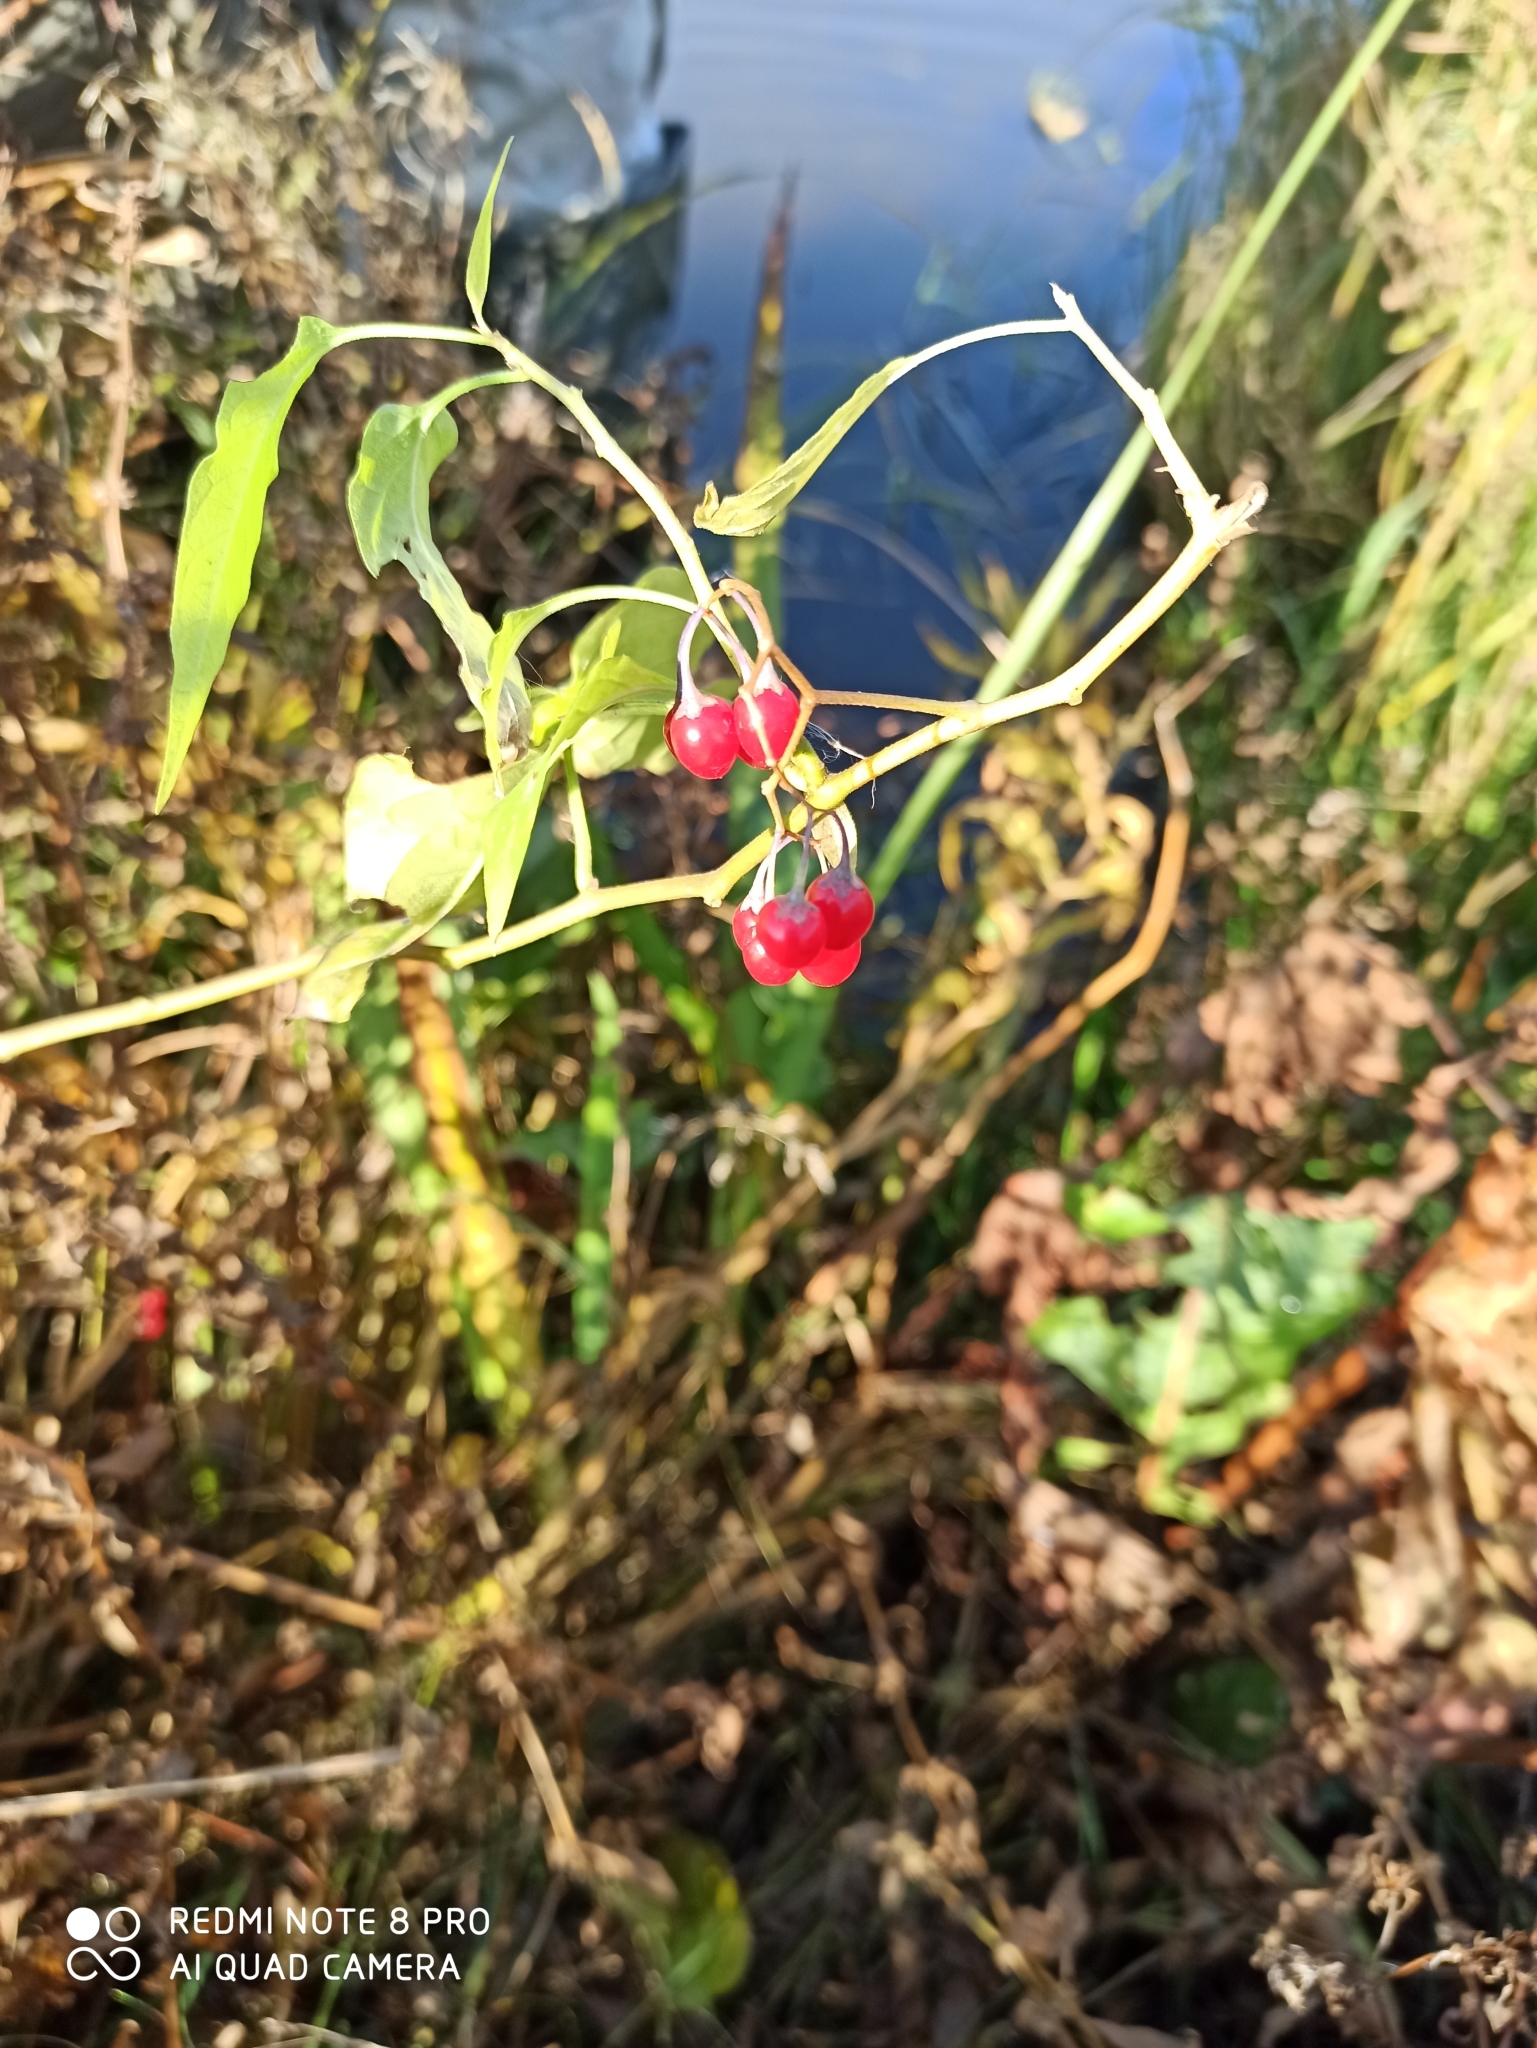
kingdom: Plantae
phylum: Tracheophyta
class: Magnoliopsida
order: Solanales
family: Solanaceae
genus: Solanum
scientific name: Solanum dulcamara
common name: Climbing nightshade
